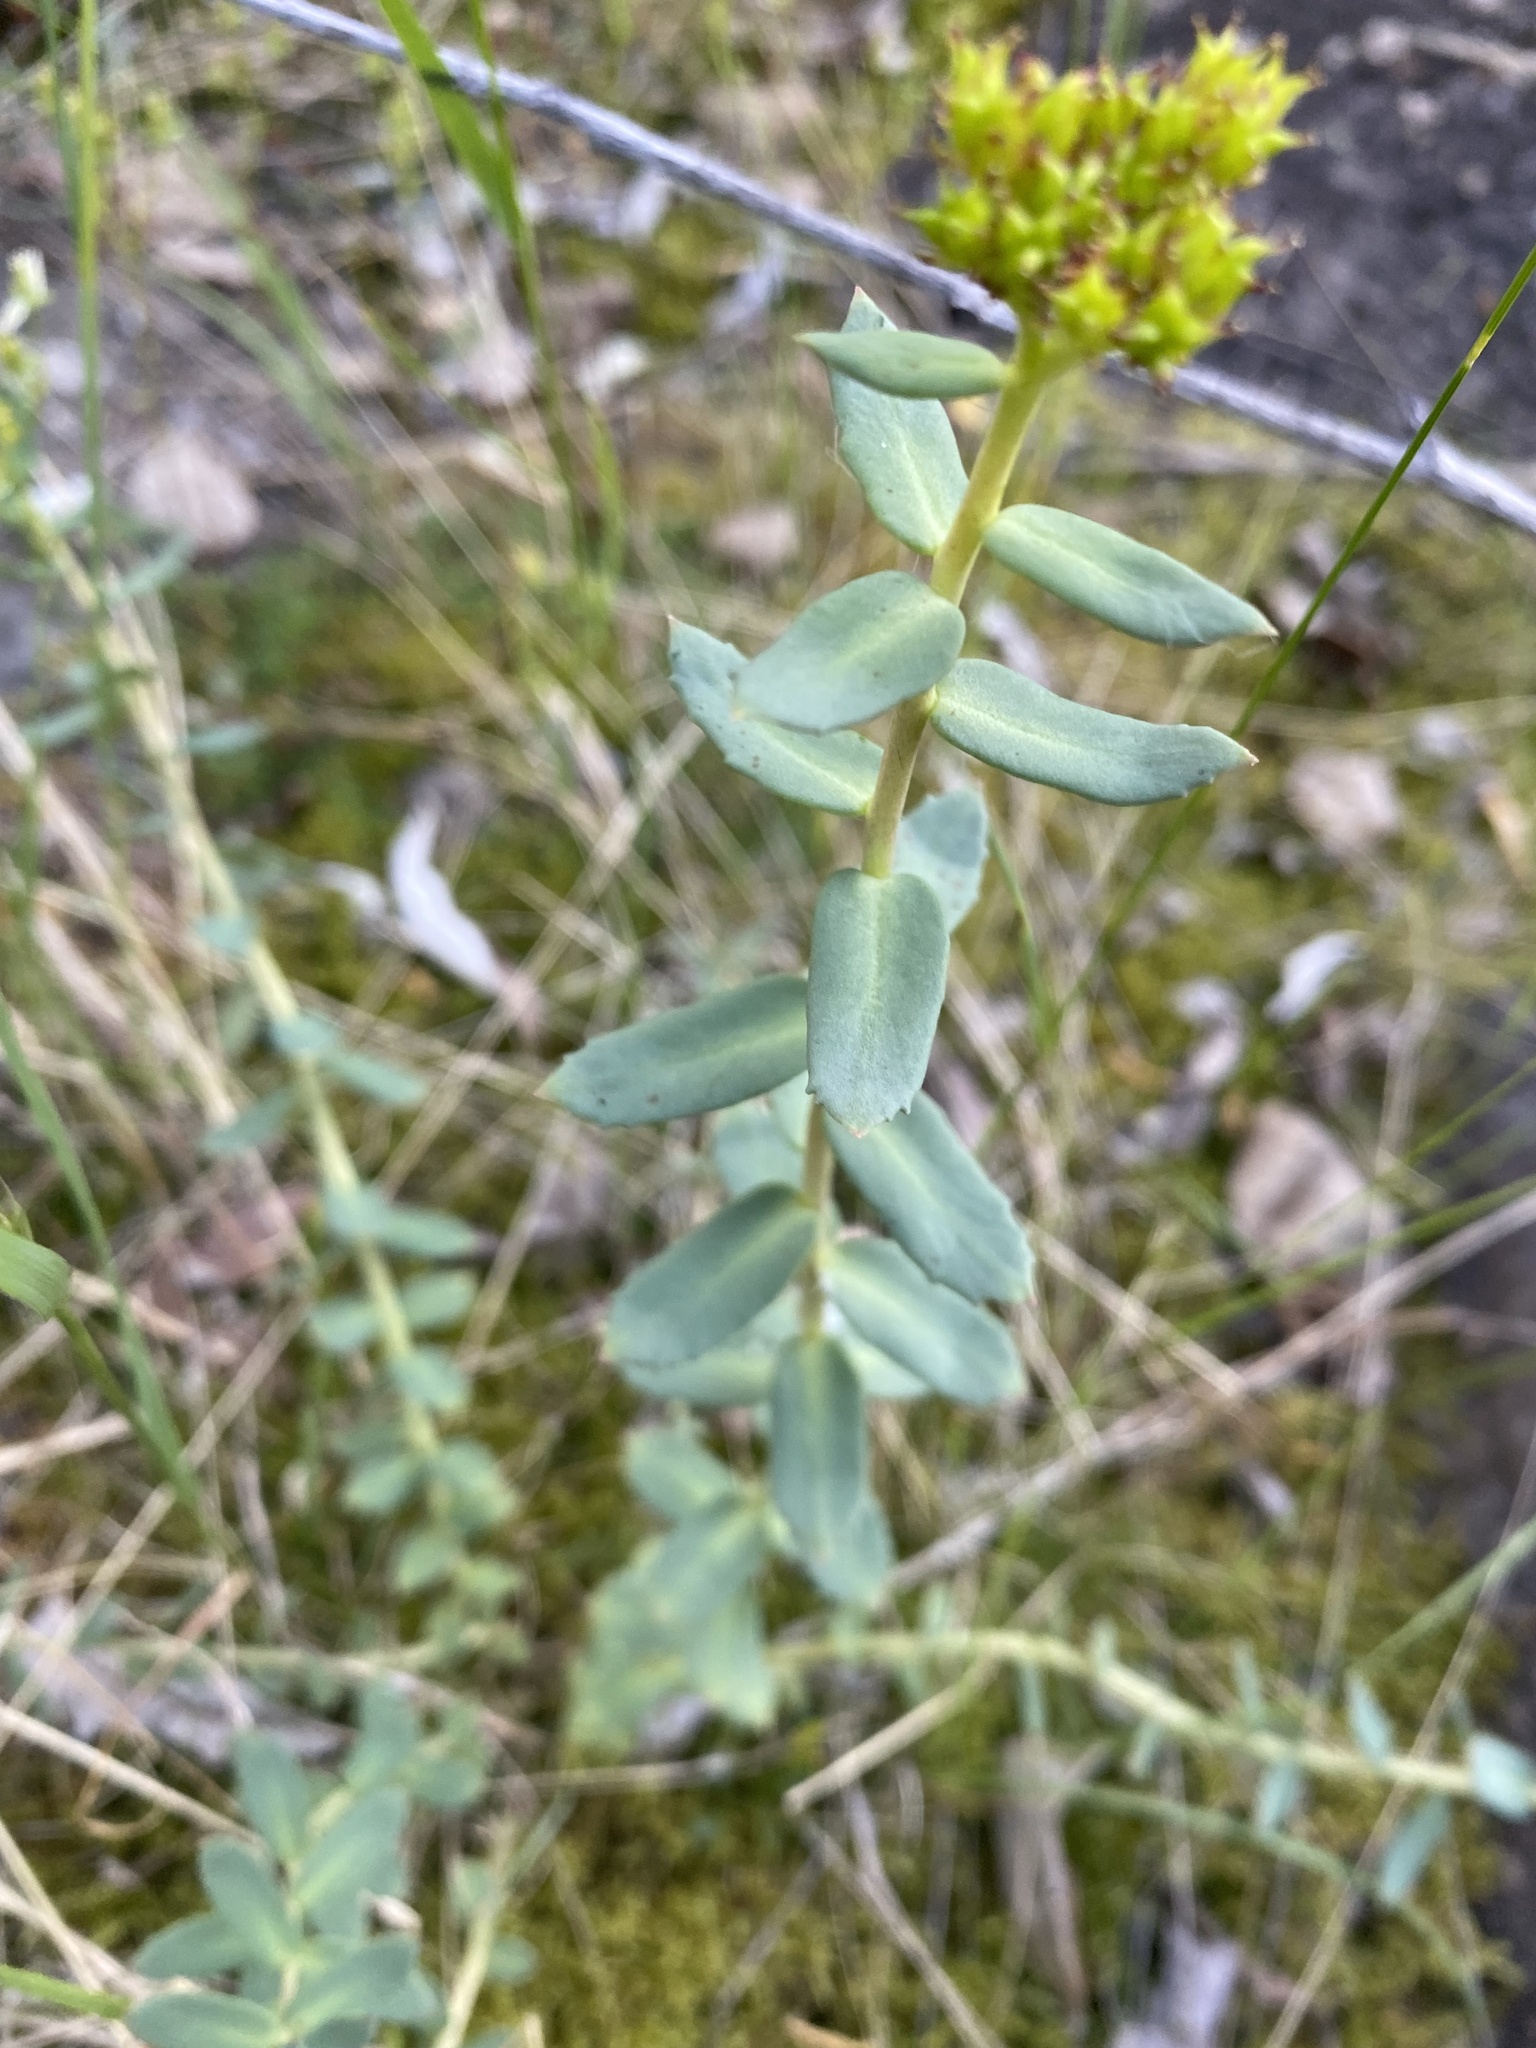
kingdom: Plantae
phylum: Tracheophyta
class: Magnoliopsida
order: Saxifragales
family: Crassulaceae
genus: Rhodiola
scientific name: Rhodiola rosea
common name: Roseroot
